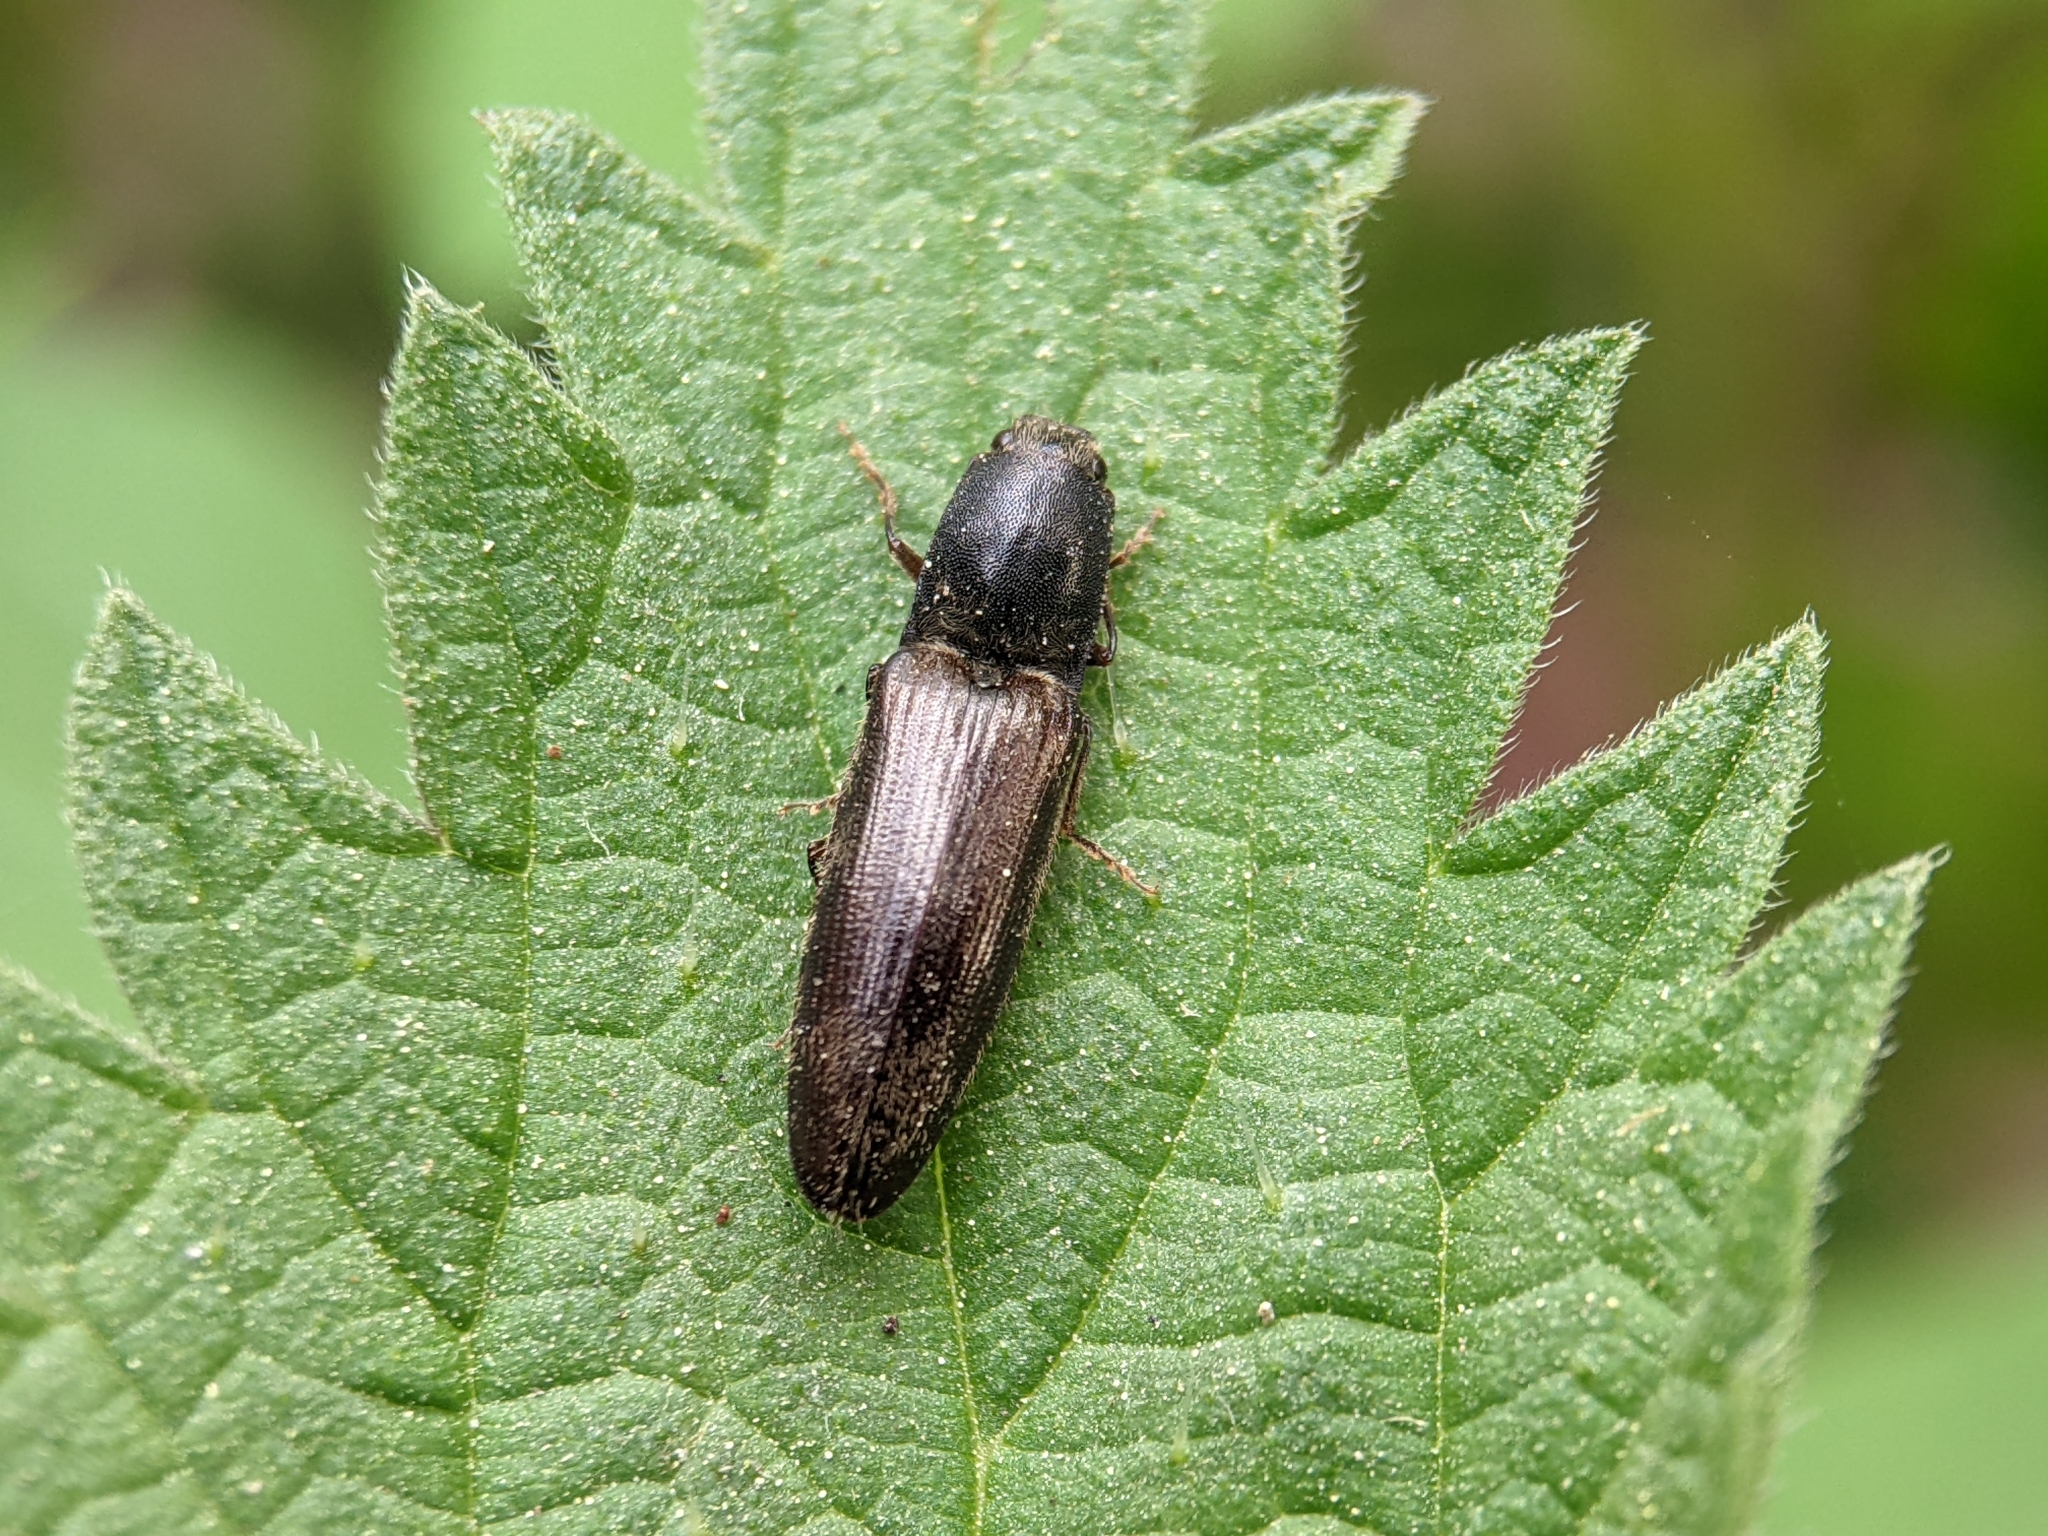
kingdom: Animalia
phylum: Arthropoda
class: Insecta
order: Coleoptera
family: Elateridae
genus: Athous
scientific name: Athous haemorrhoidalis
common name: Red-brown click beetle
